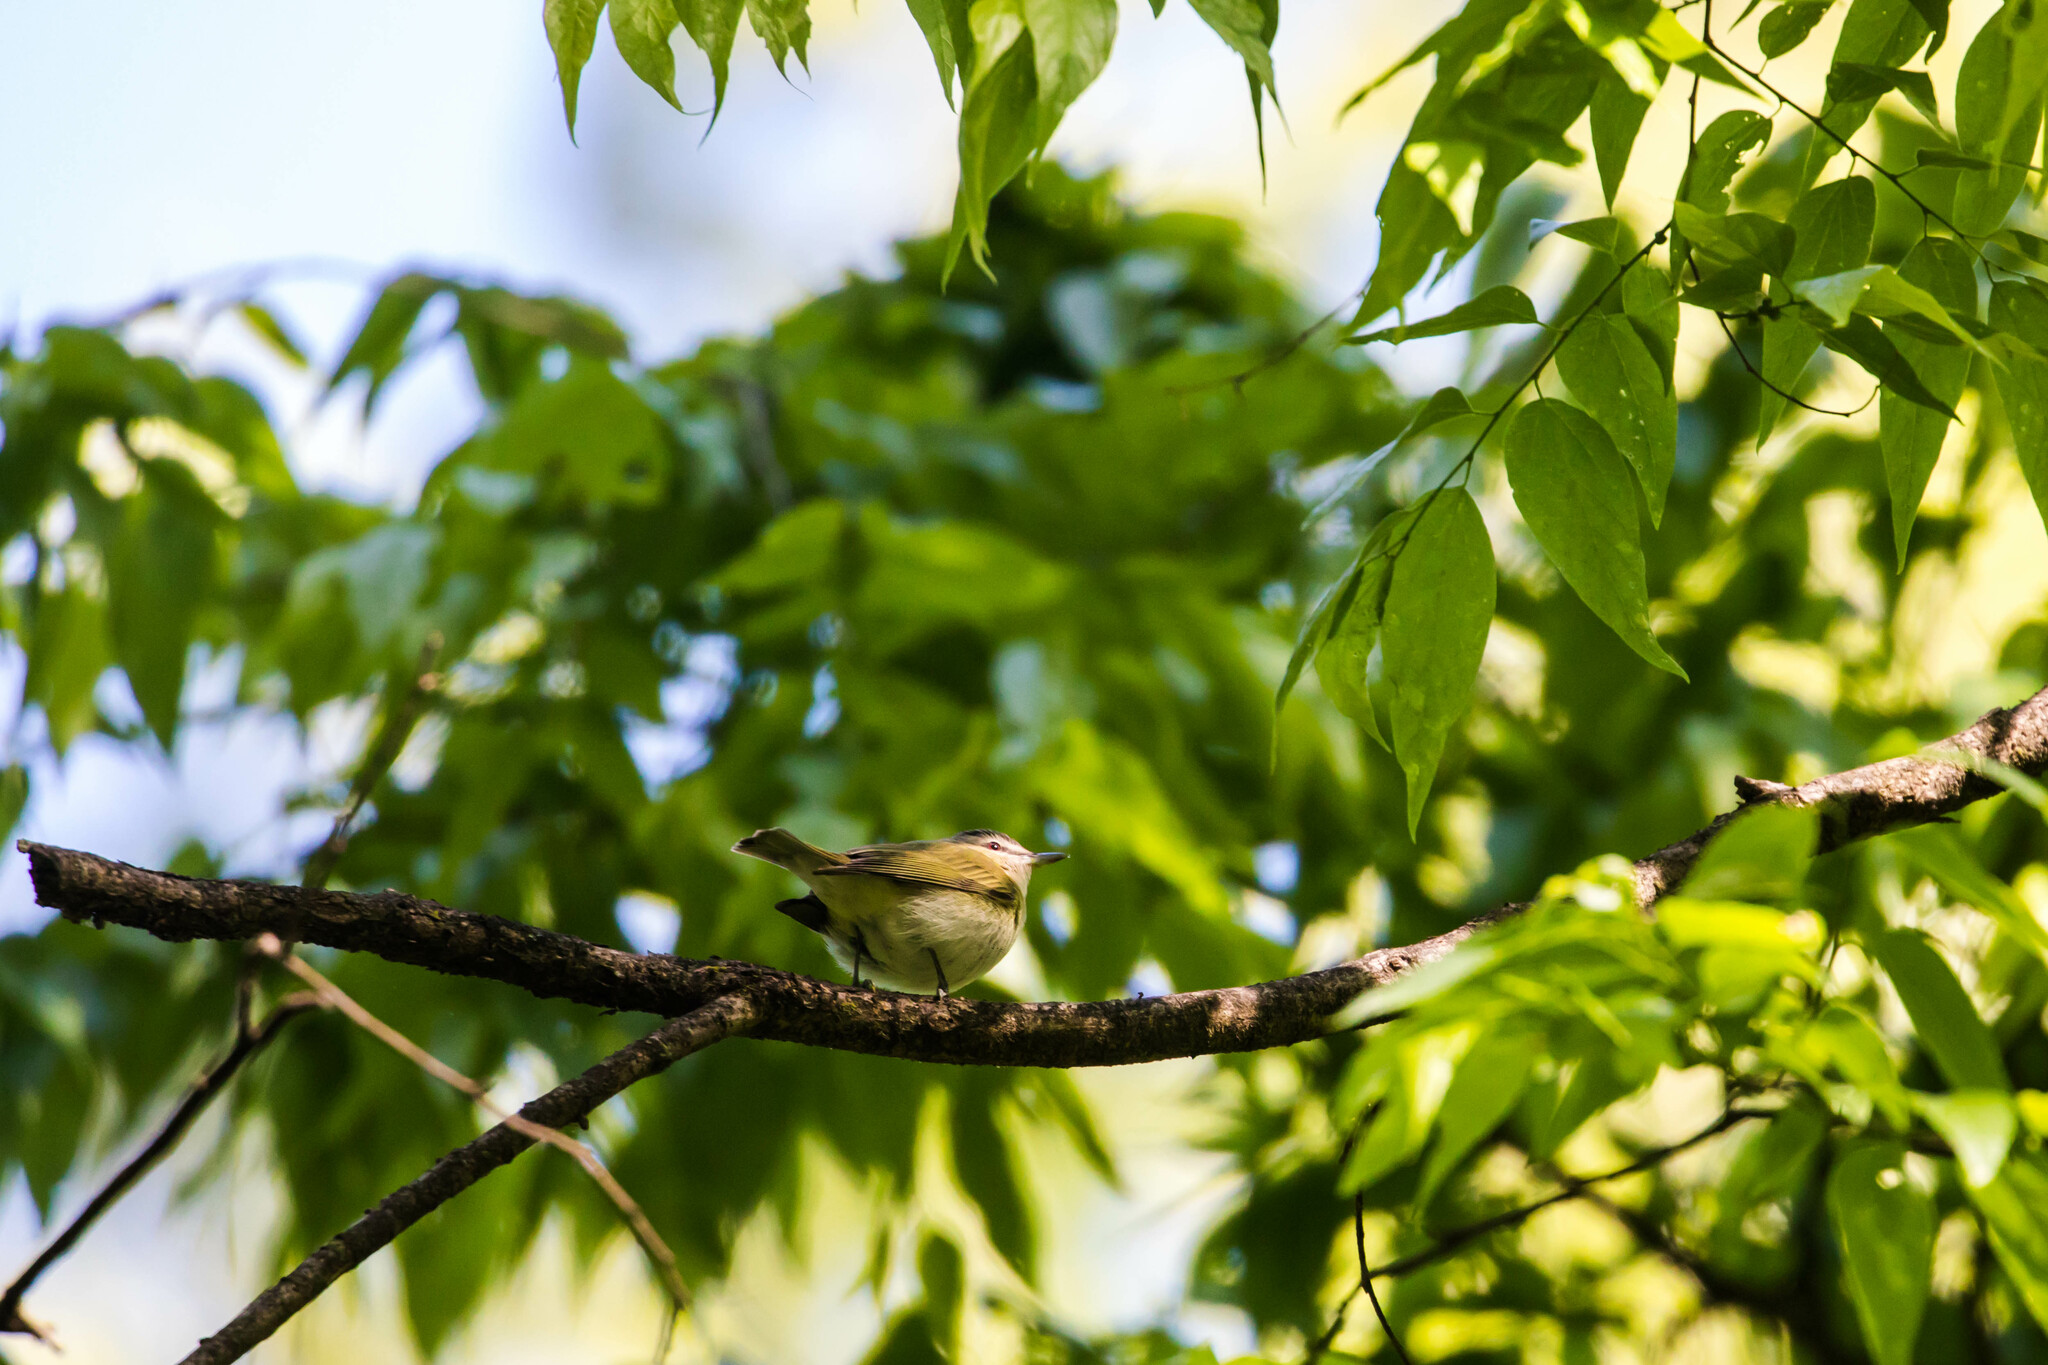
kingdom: Animalia
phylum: Chordata
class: Aves
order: Passeriformes
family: Vireonidae
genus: Vireo
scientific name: Vireo olivaceus
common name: Red-eyed vireo
